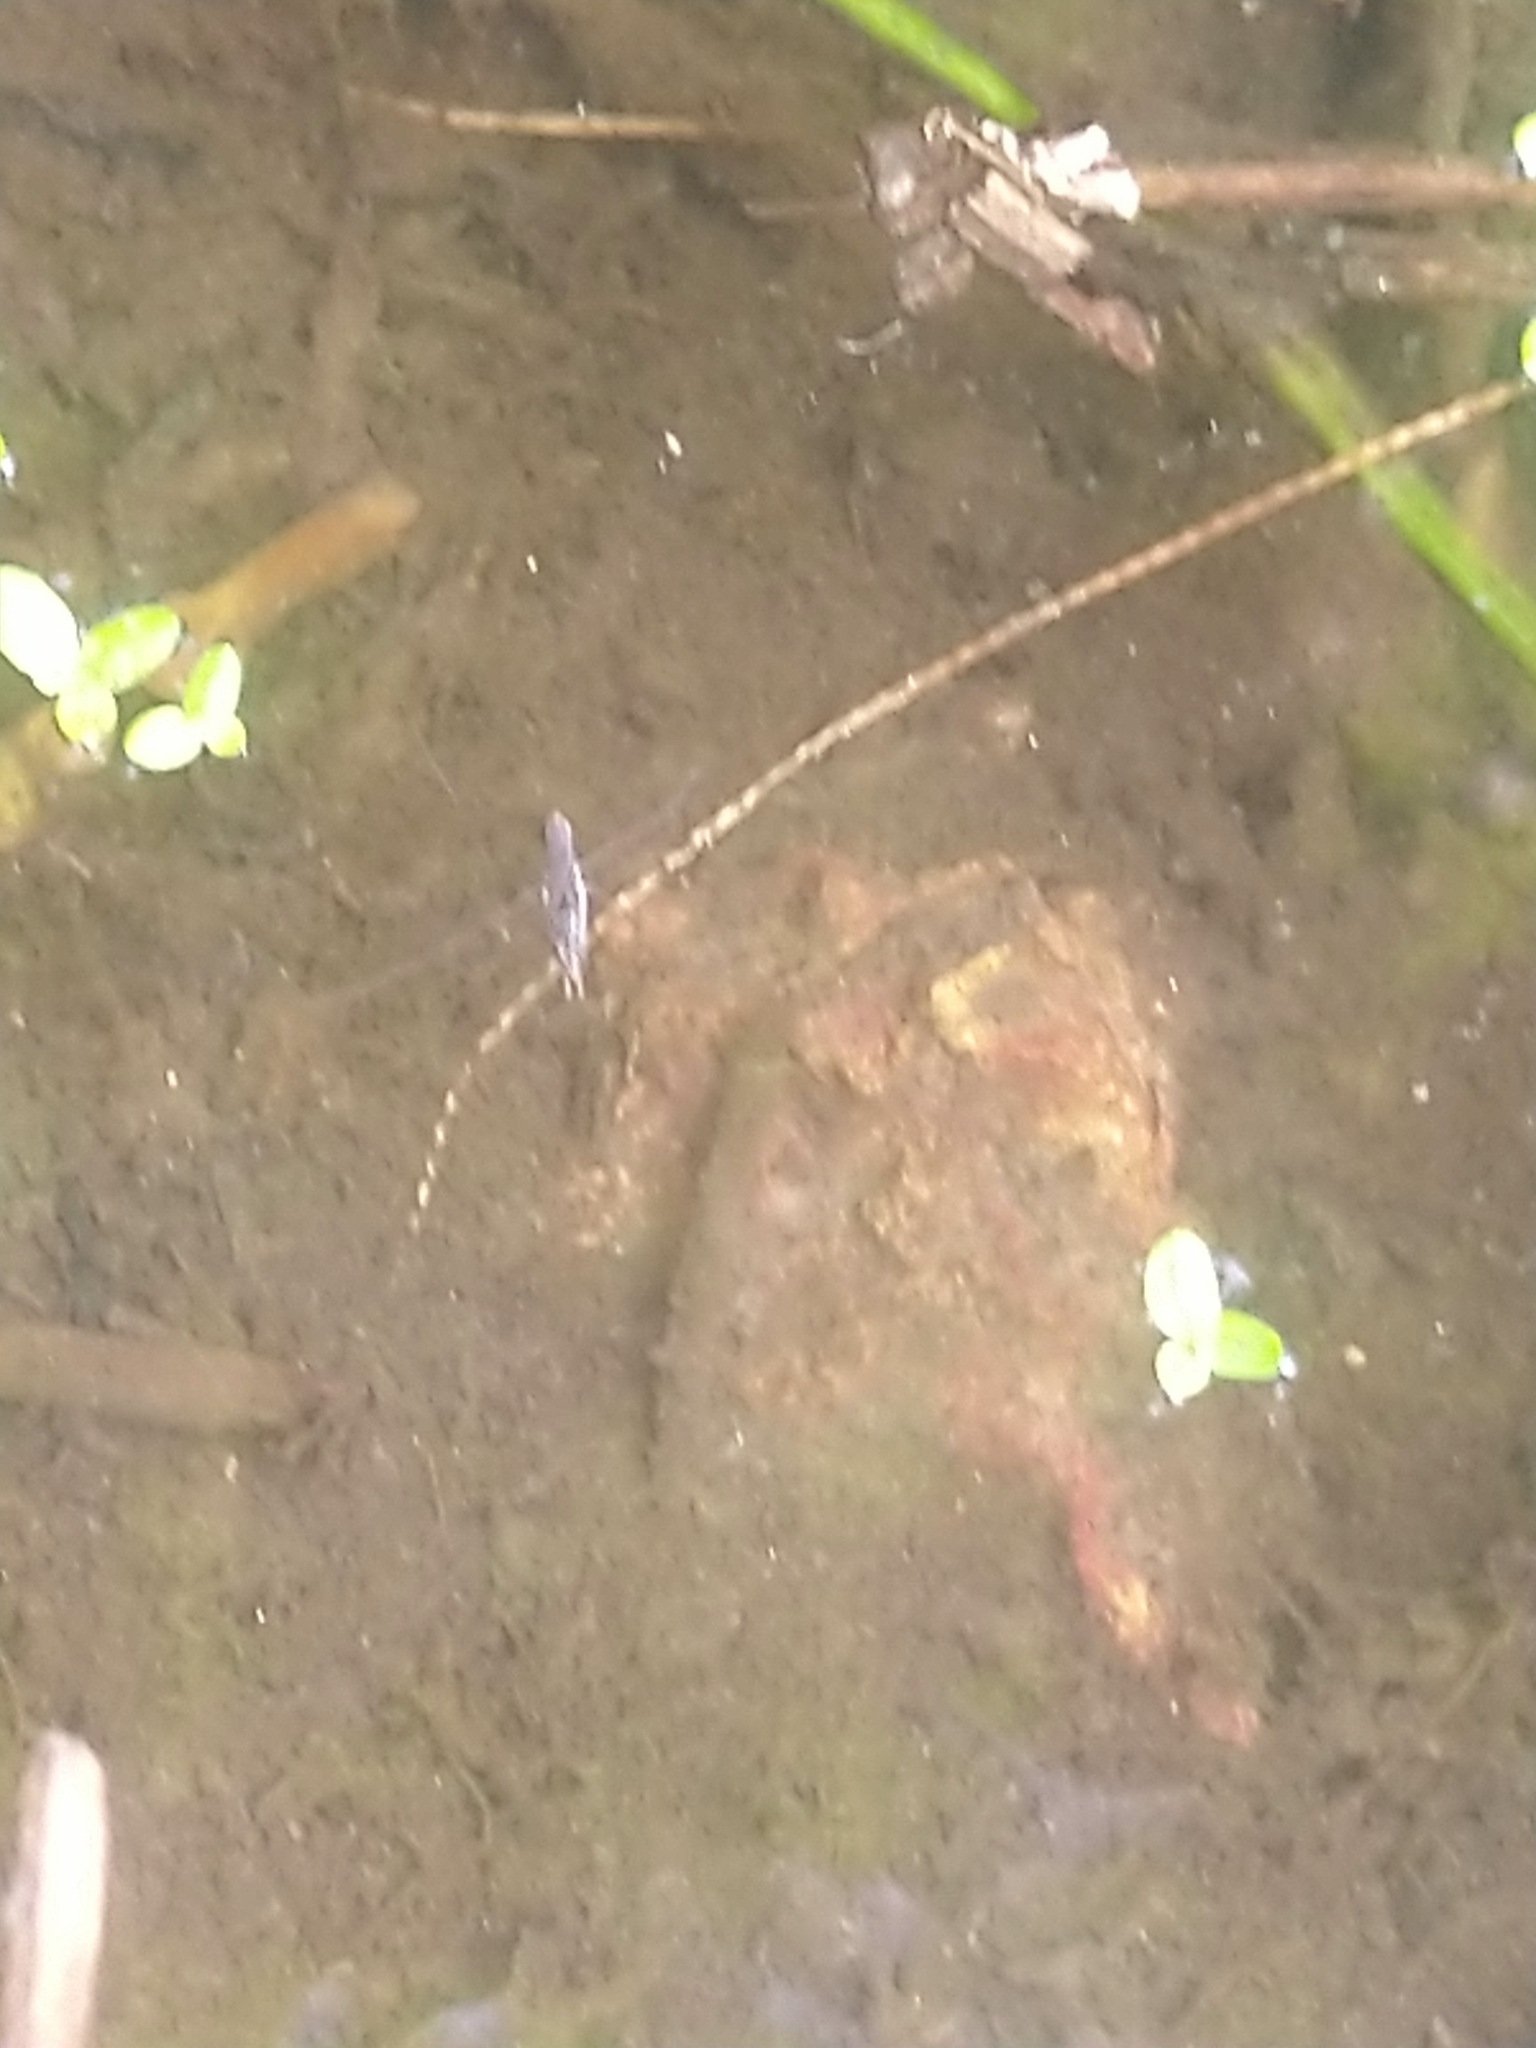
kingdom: Animalia
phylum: Arthropoda
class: Insecta
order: Hemiptera
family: Gerridae
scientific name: Gerridae
